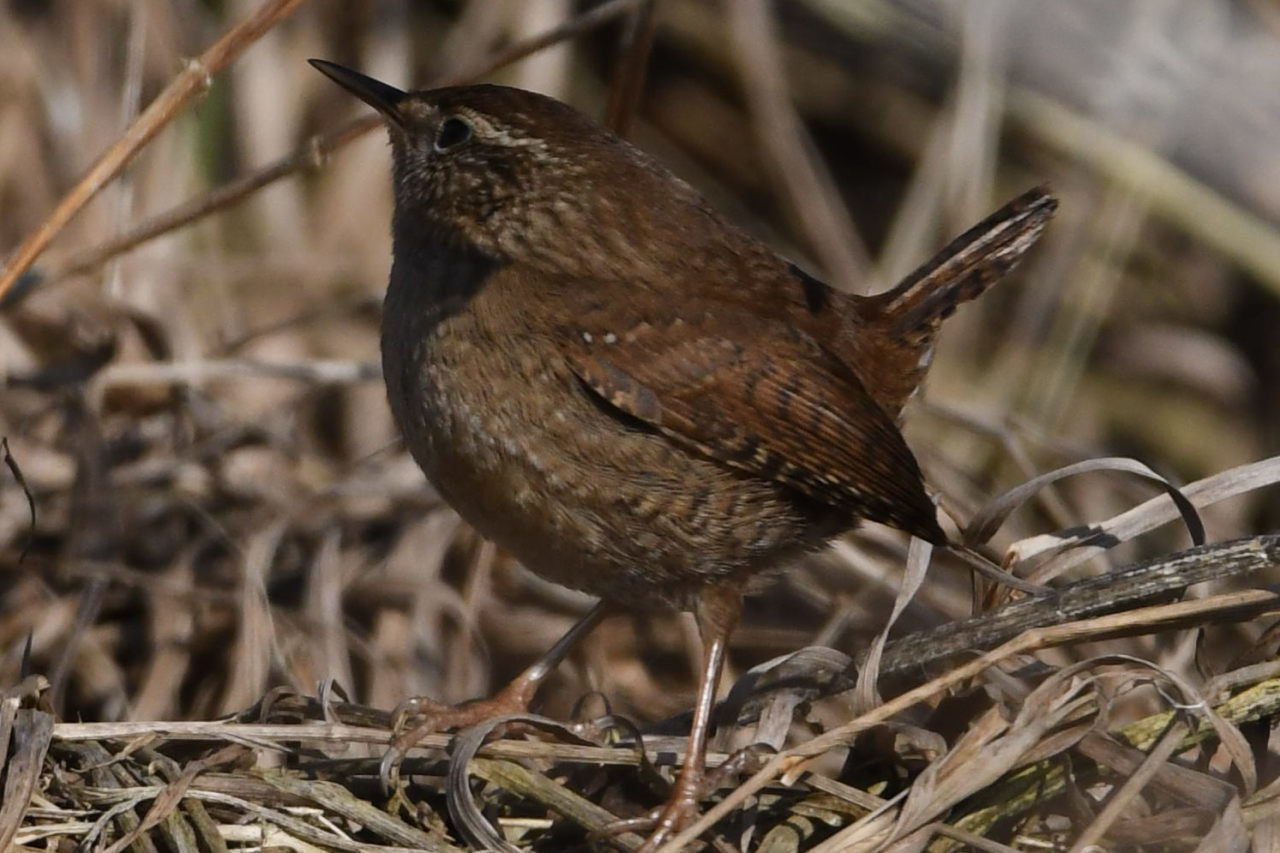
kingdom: Animalia
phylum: Chordata
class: Aves
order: Passeriformes
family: Troglodytidae
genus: Troglodytes
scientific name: Troglodytes troglodytes
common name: Eurasian wren
